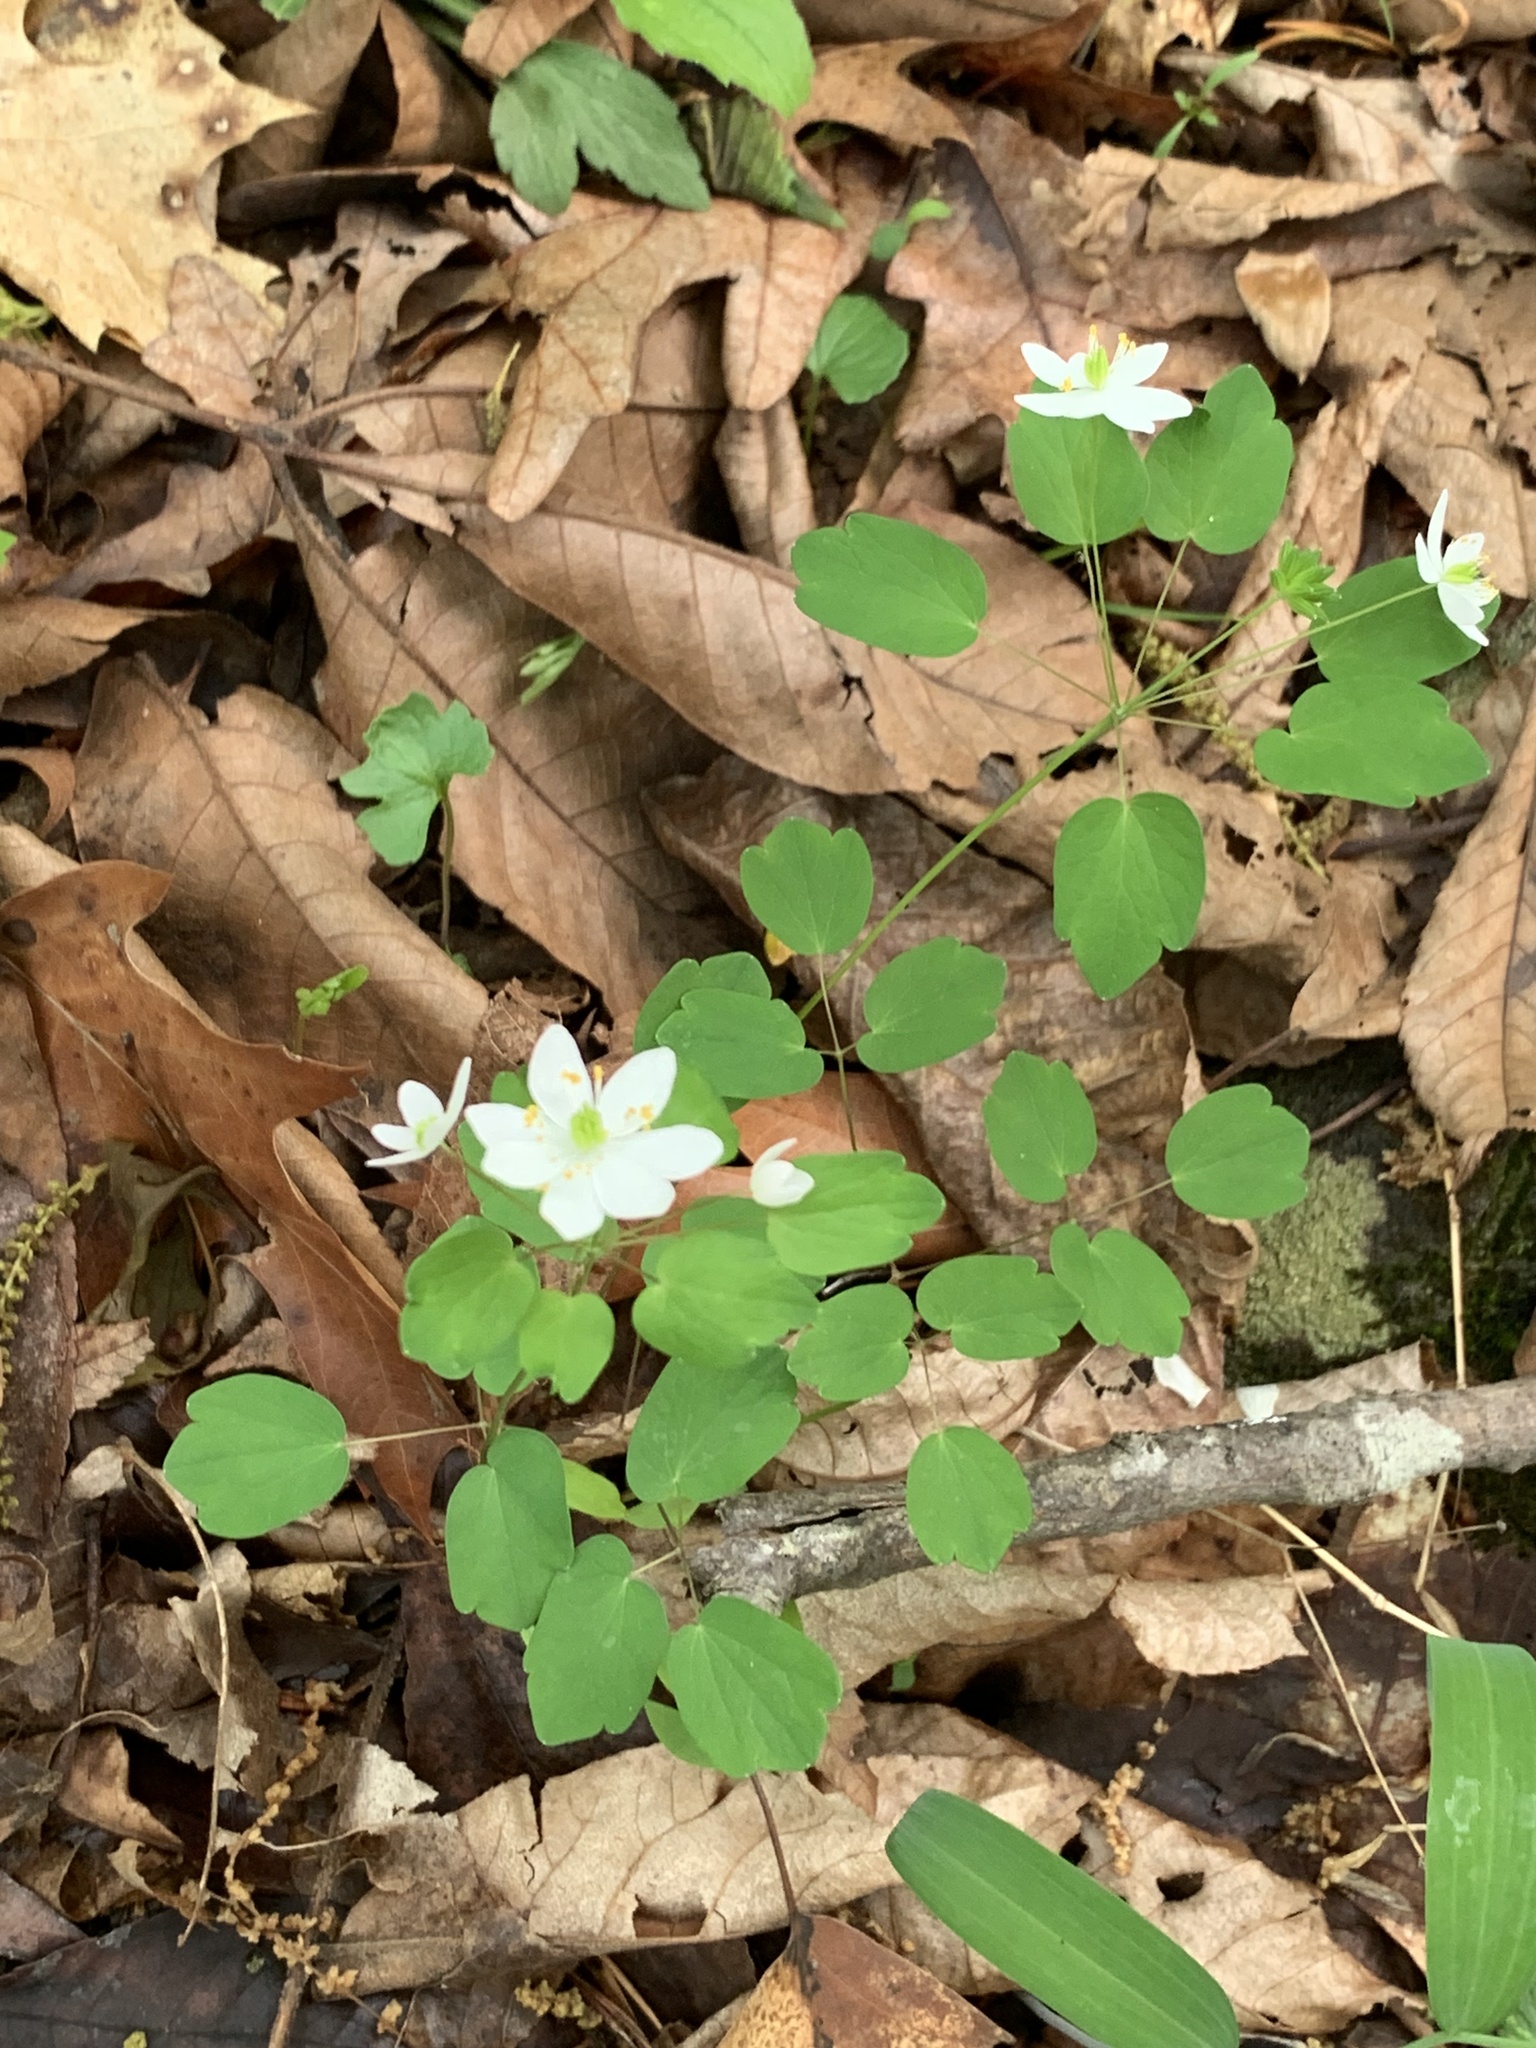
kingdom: Plantae
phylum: Tracheophyta
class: Magnoliopsida
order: Ranunculales
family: Ranunculaceae
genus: Thalictrum
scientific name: Thalictrum thalictroides
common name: Rue-anemone
